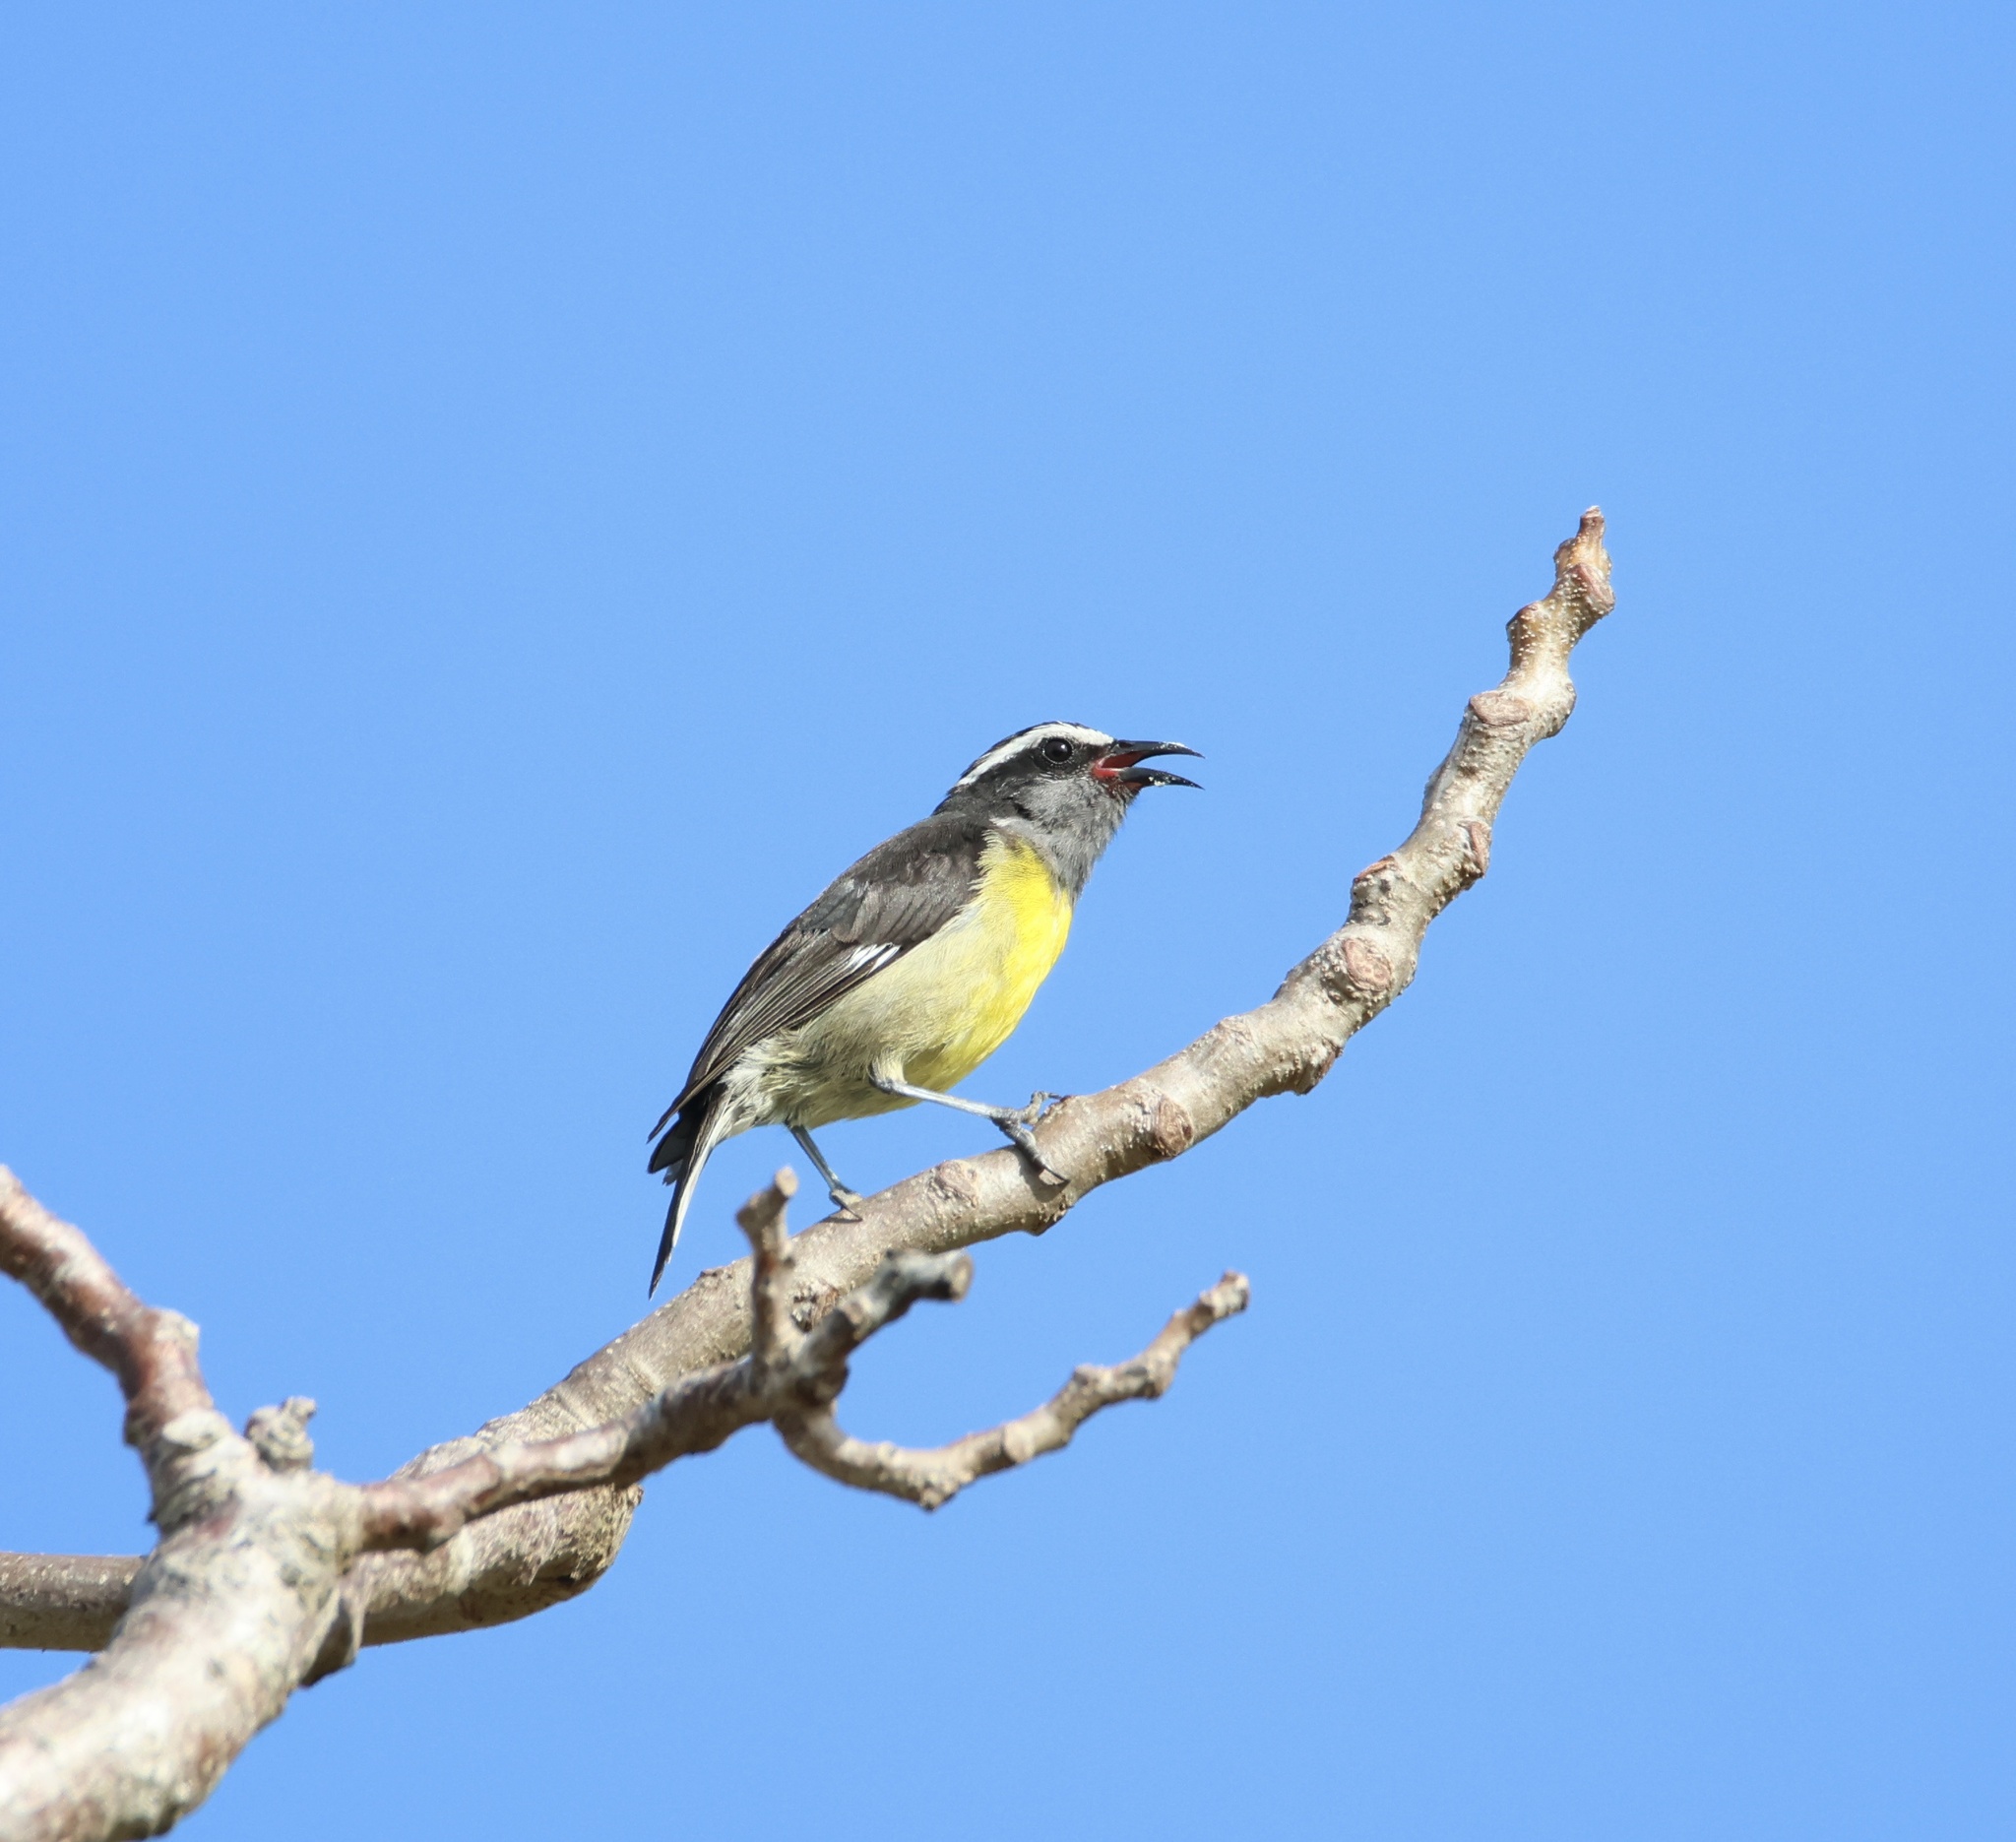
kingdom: Animalia
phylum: Chordata
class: Aves
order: Passeriformes
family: Thraupidae
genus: Coereba
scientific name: Coereba flaveola
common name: Bananaquit
